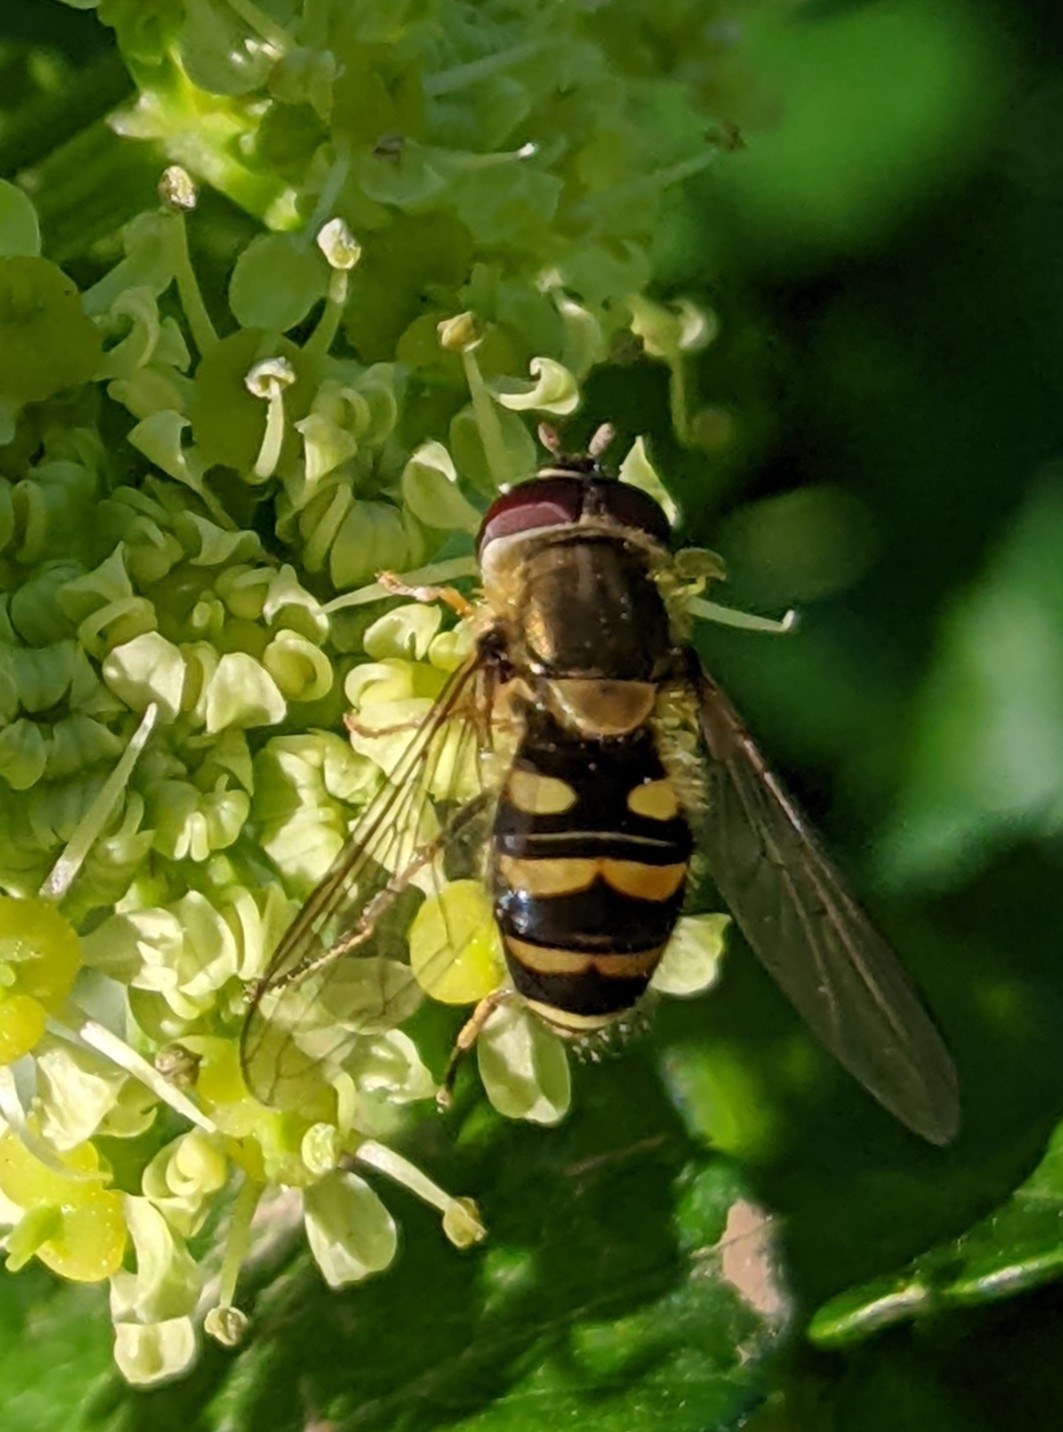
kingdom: Animalia
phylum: Arthropoda
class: Insecta
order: Diptera
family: Syrphidae
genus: Syrphus
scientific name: Syrphus
